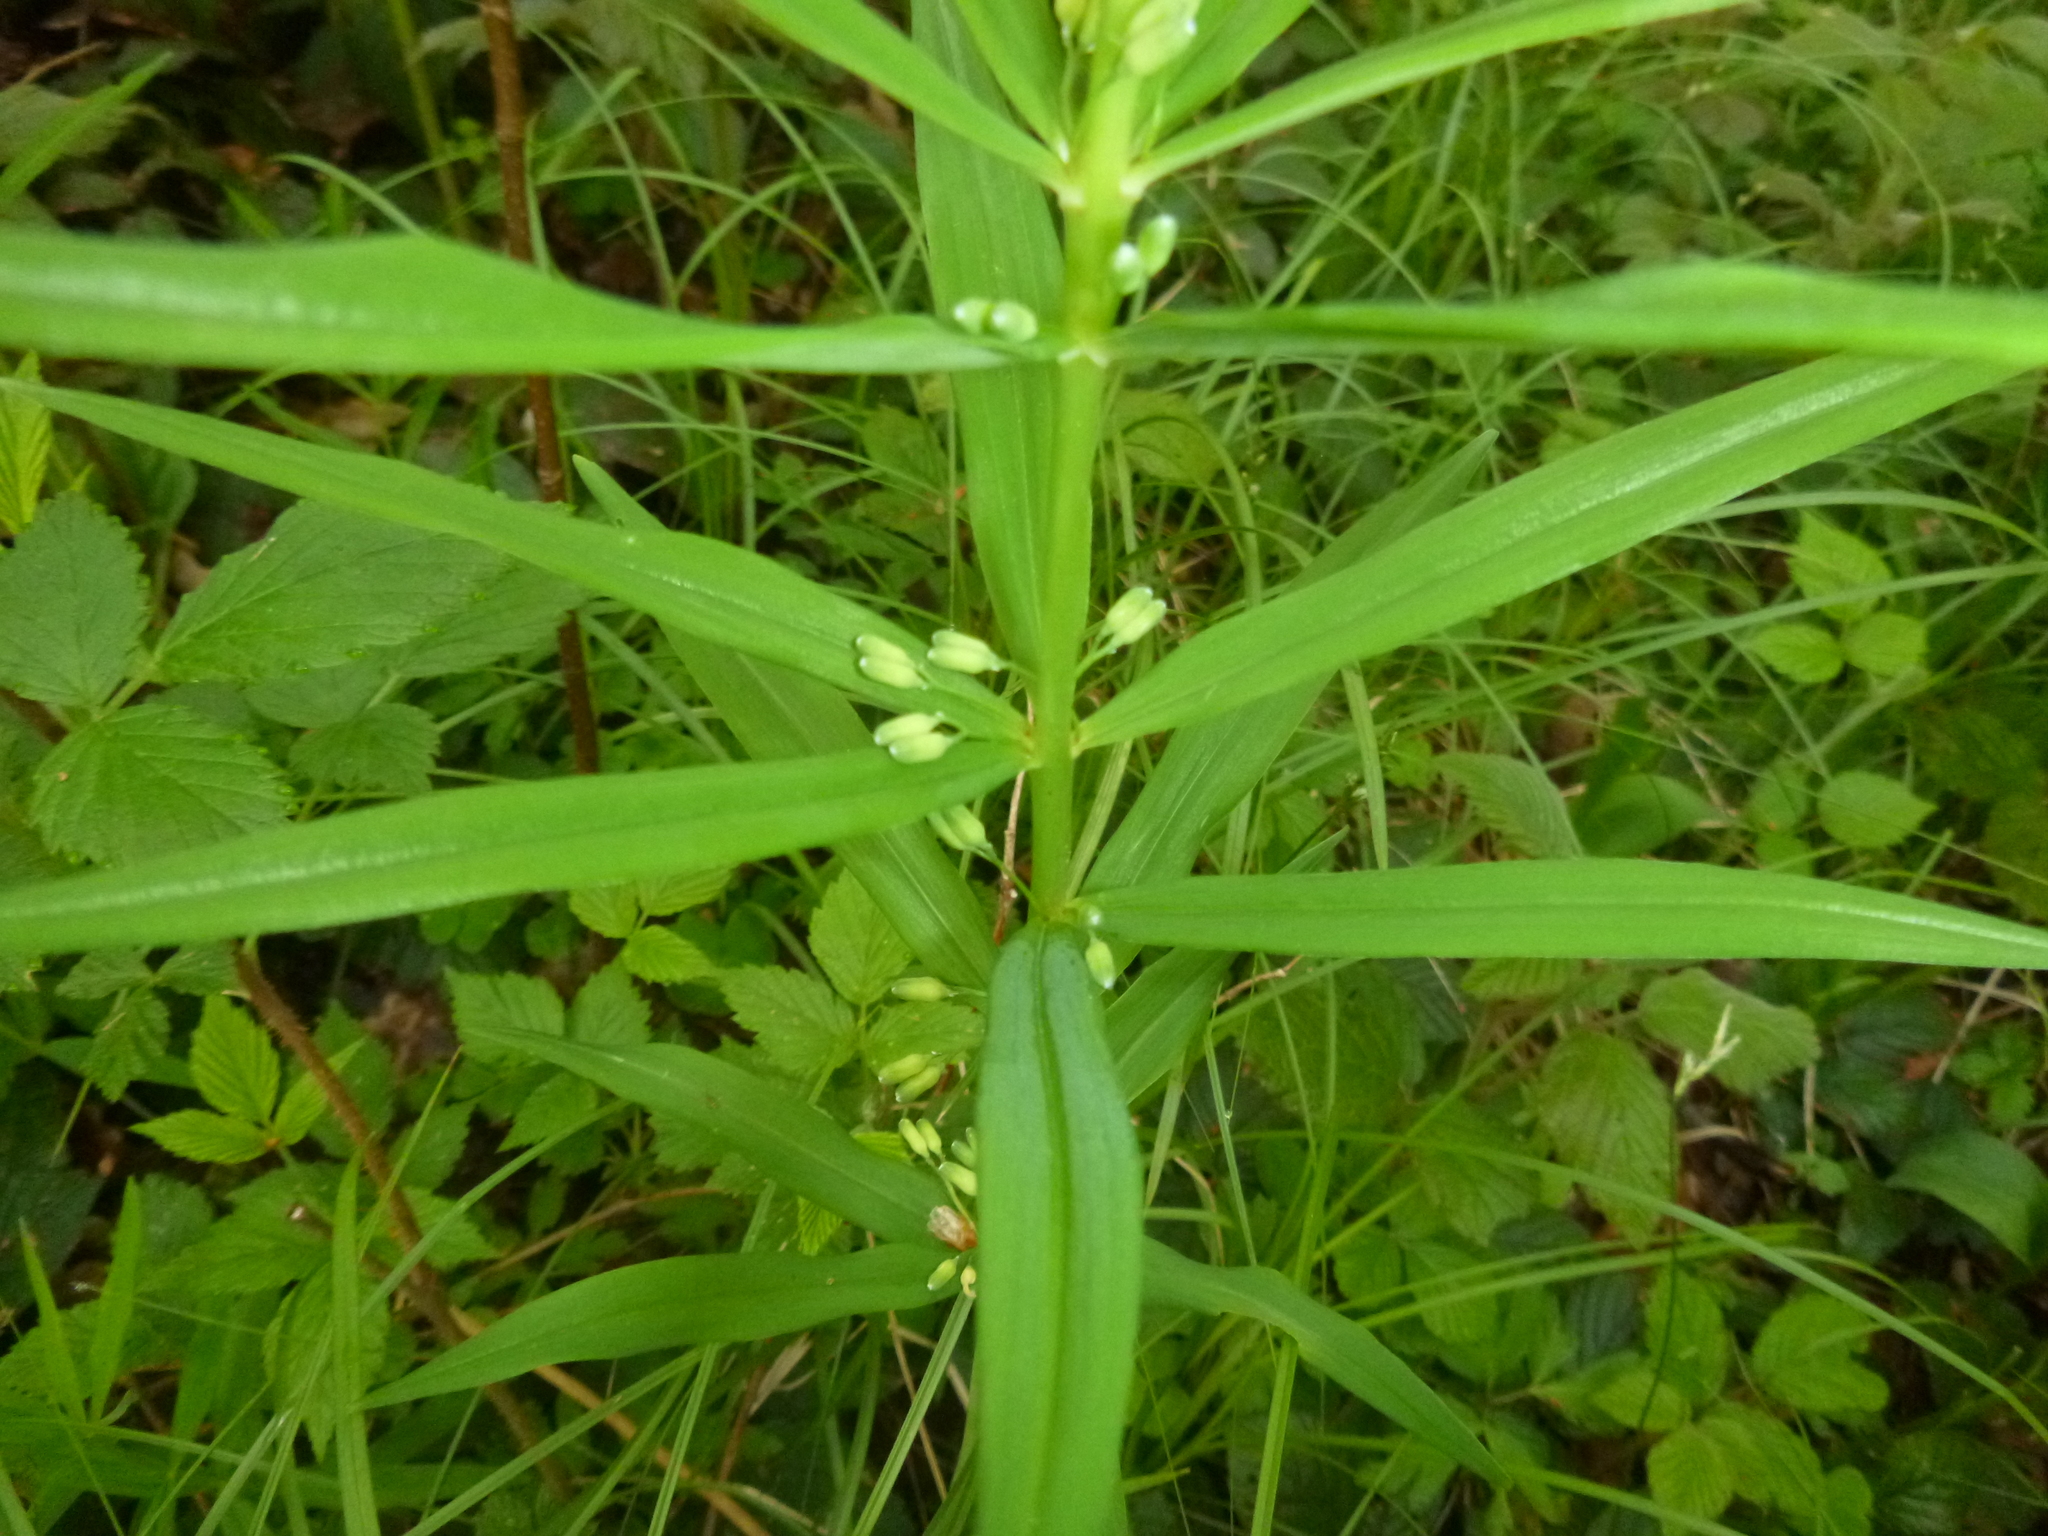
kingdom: Plantae
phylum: Tracheophyta
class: Liliopsida
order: Asparagales
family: Asparagaceae
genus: Polygonatum
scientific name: Polygonatum verticillatum
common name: Whorled solomon's-seal
